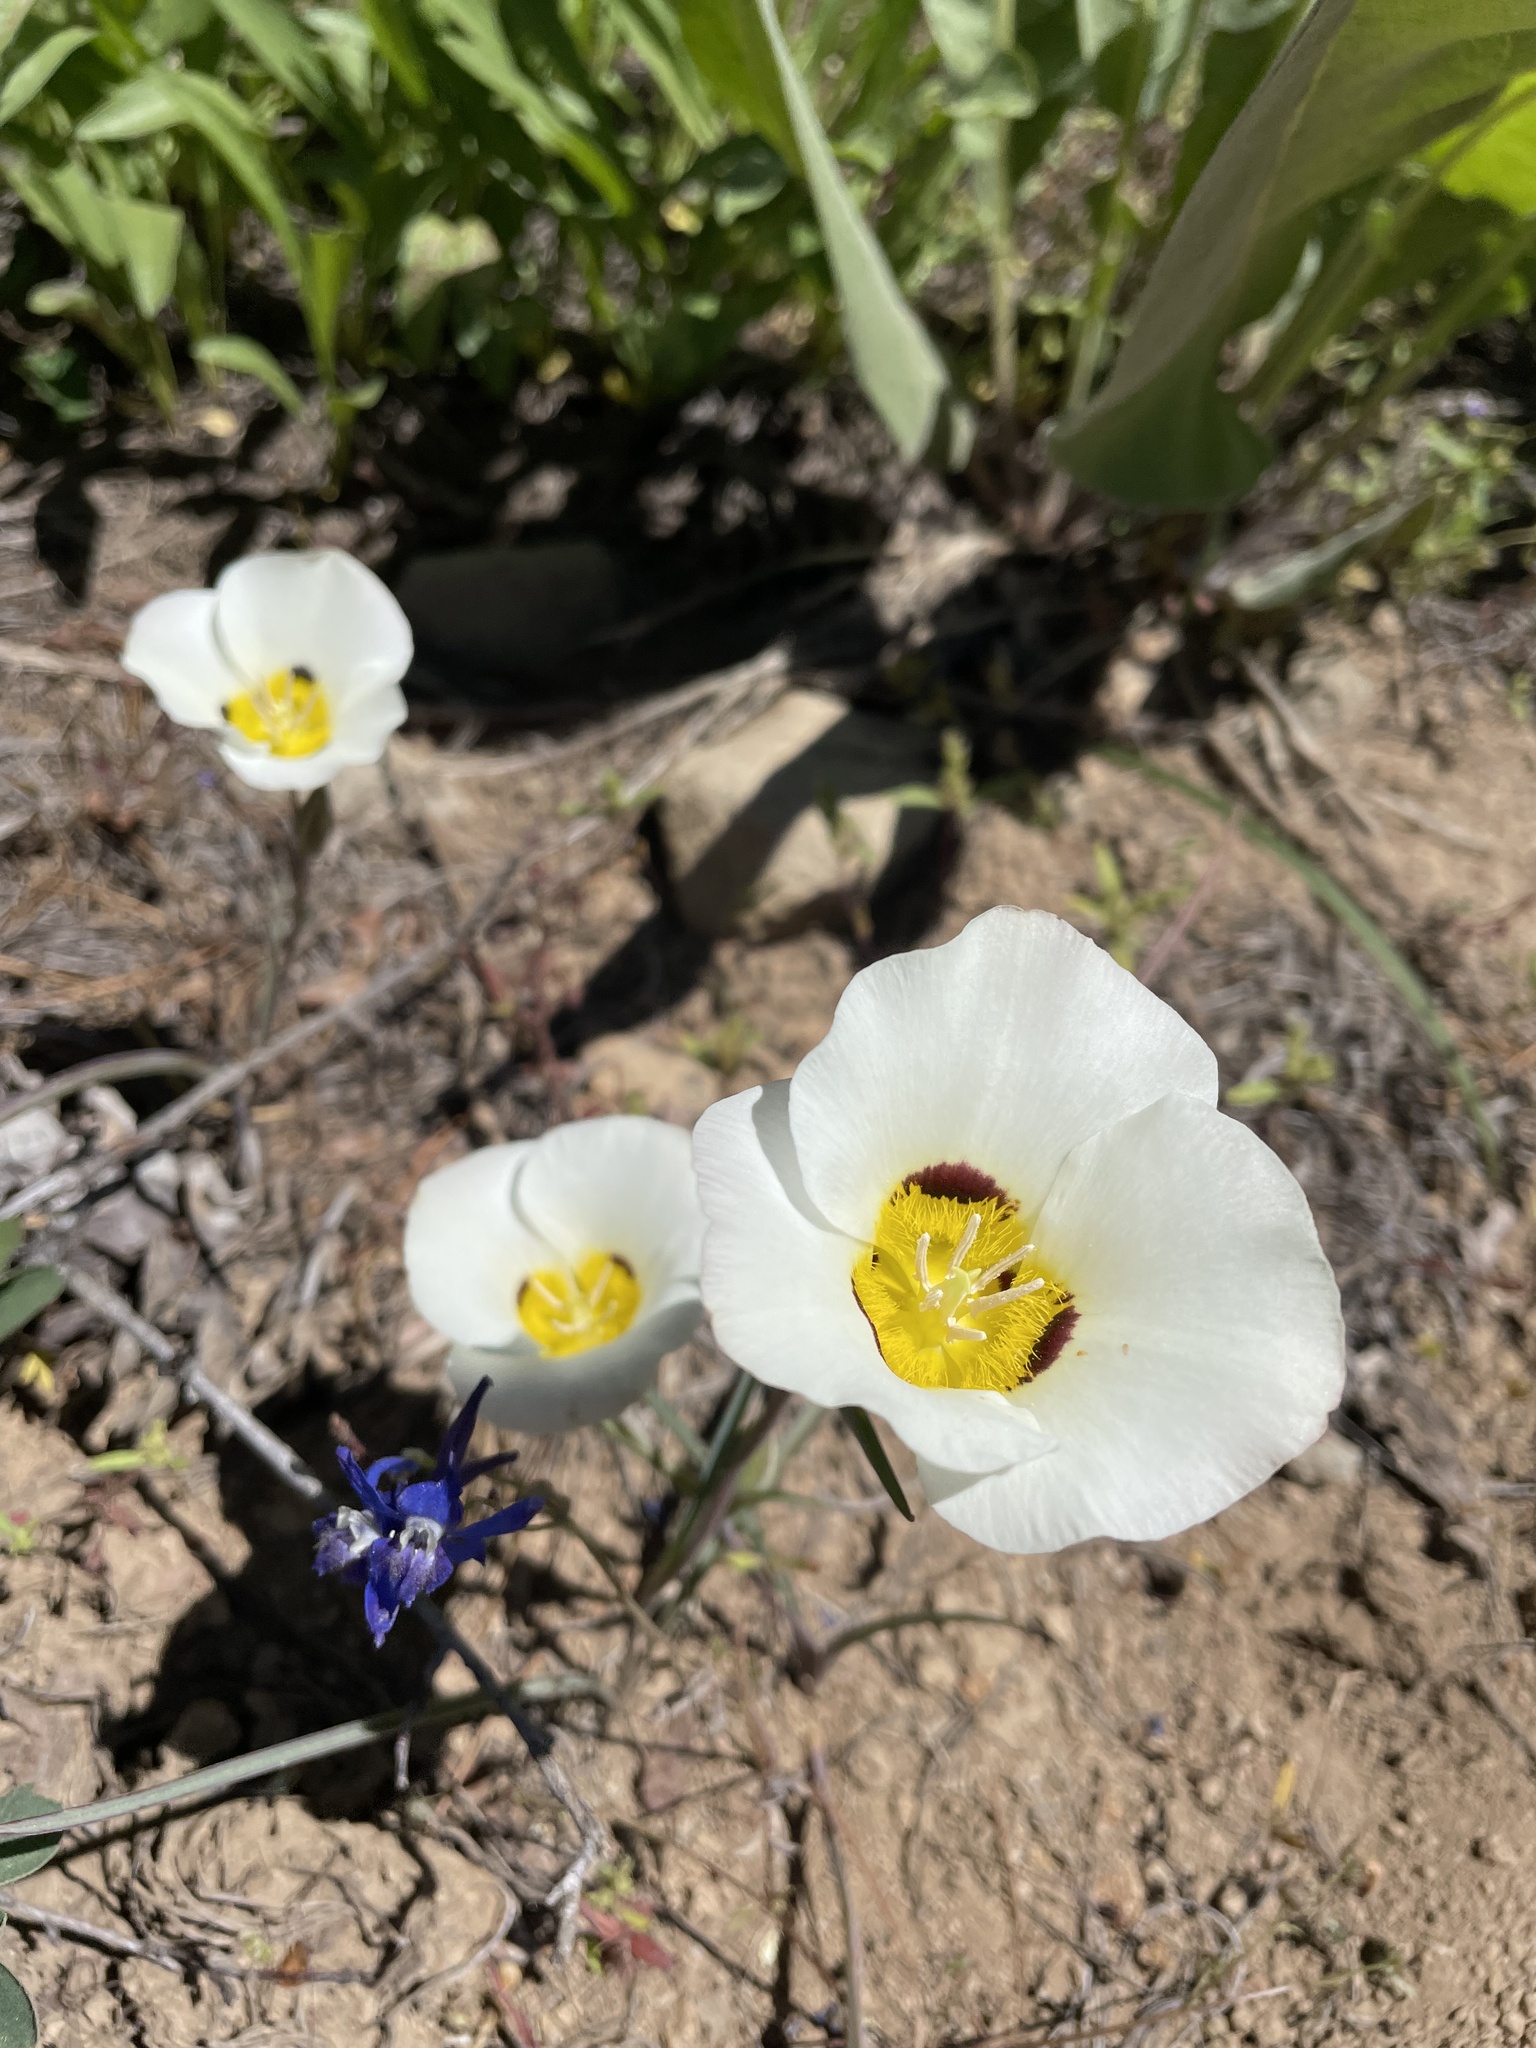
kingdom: Plantae
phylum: Tracheophyta
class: Liliopsida
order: Liliales
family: Liliaceae
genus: Calochortus
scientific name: Calochortus leichtlinii
